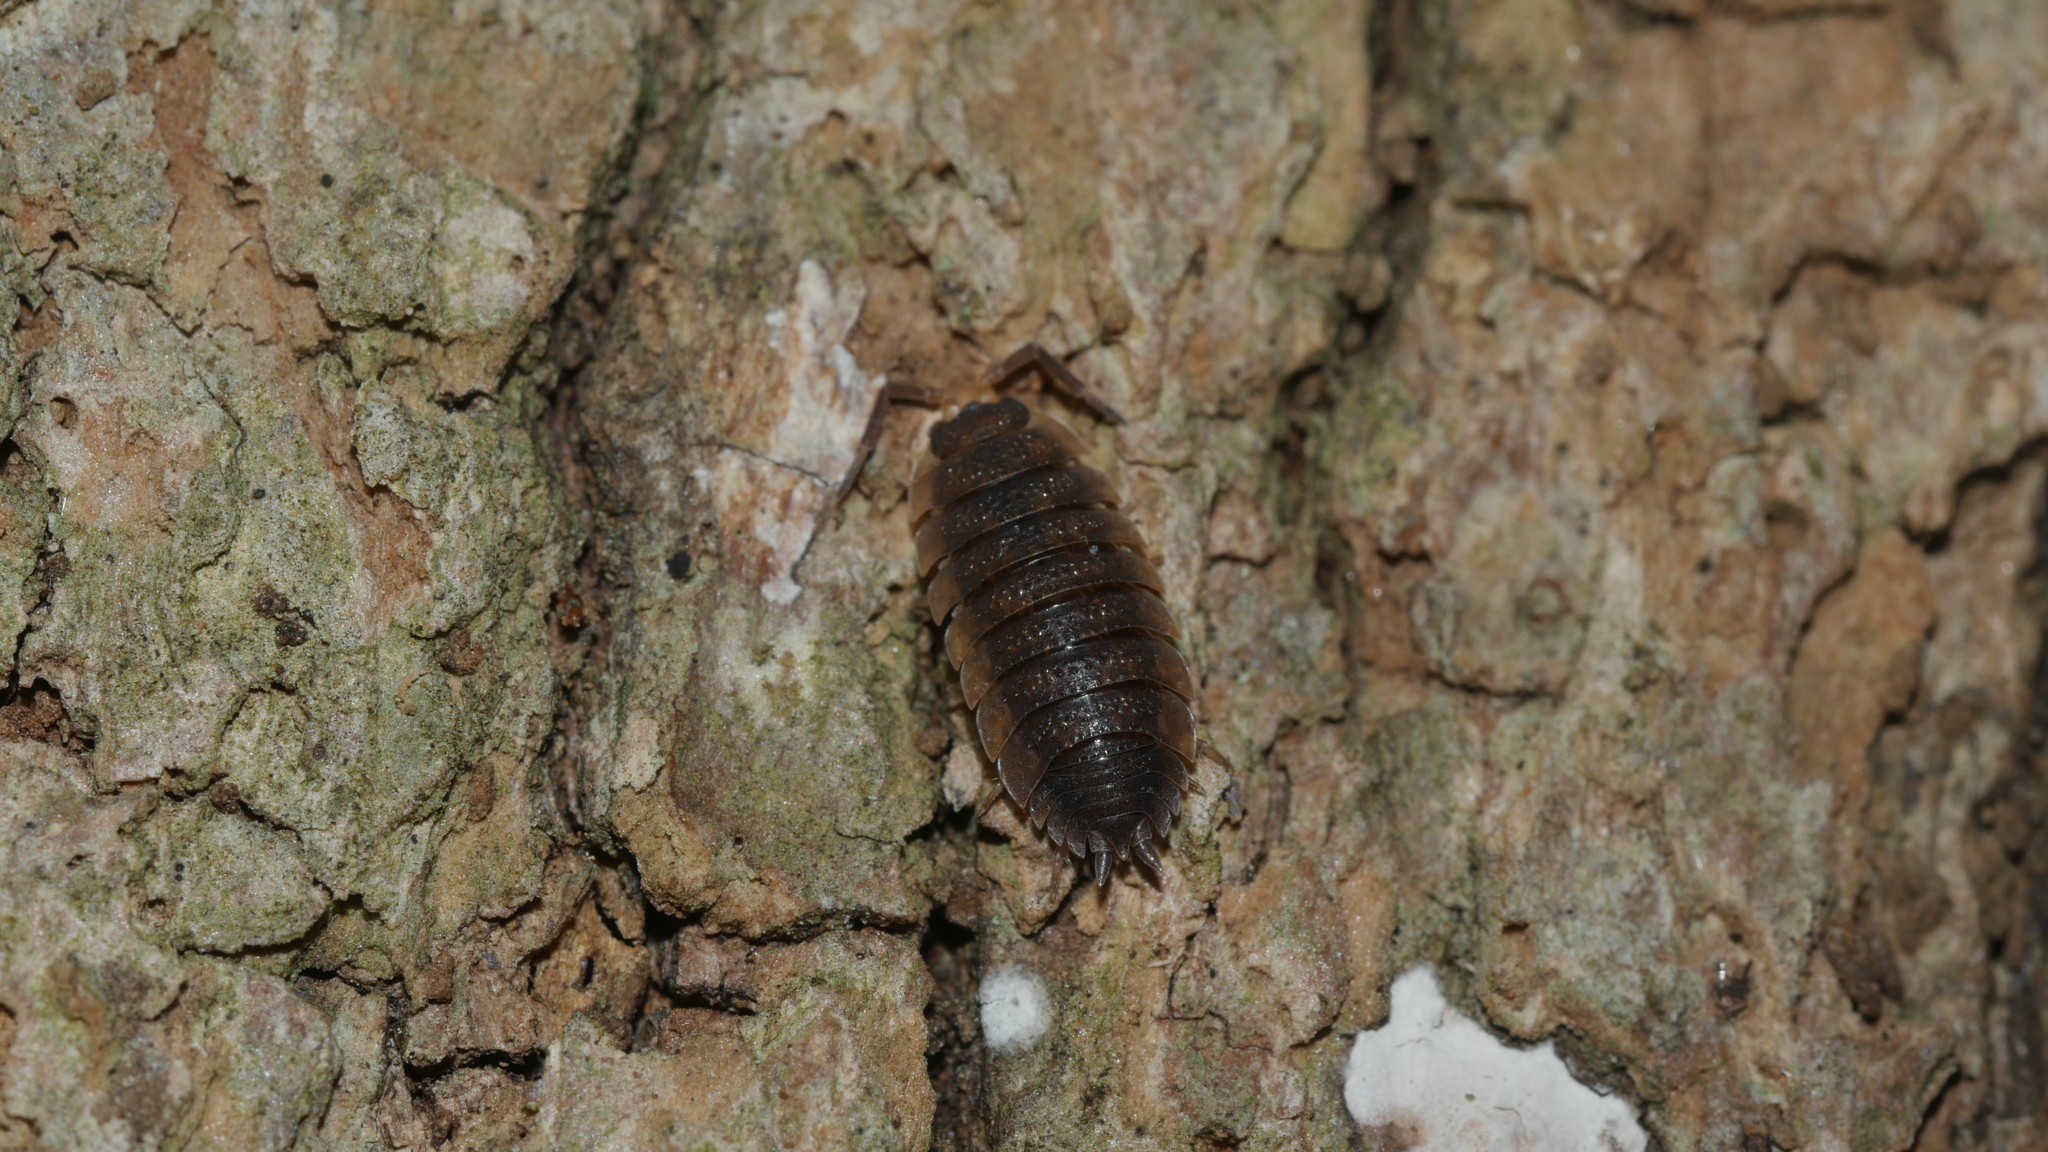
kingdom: Animalia
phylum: Arthropoda
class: Malacostraca
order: Isopoda
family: Porcellionidae
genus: Porcellio
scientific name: Porcellio scaber
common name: Common rough woodlouse
